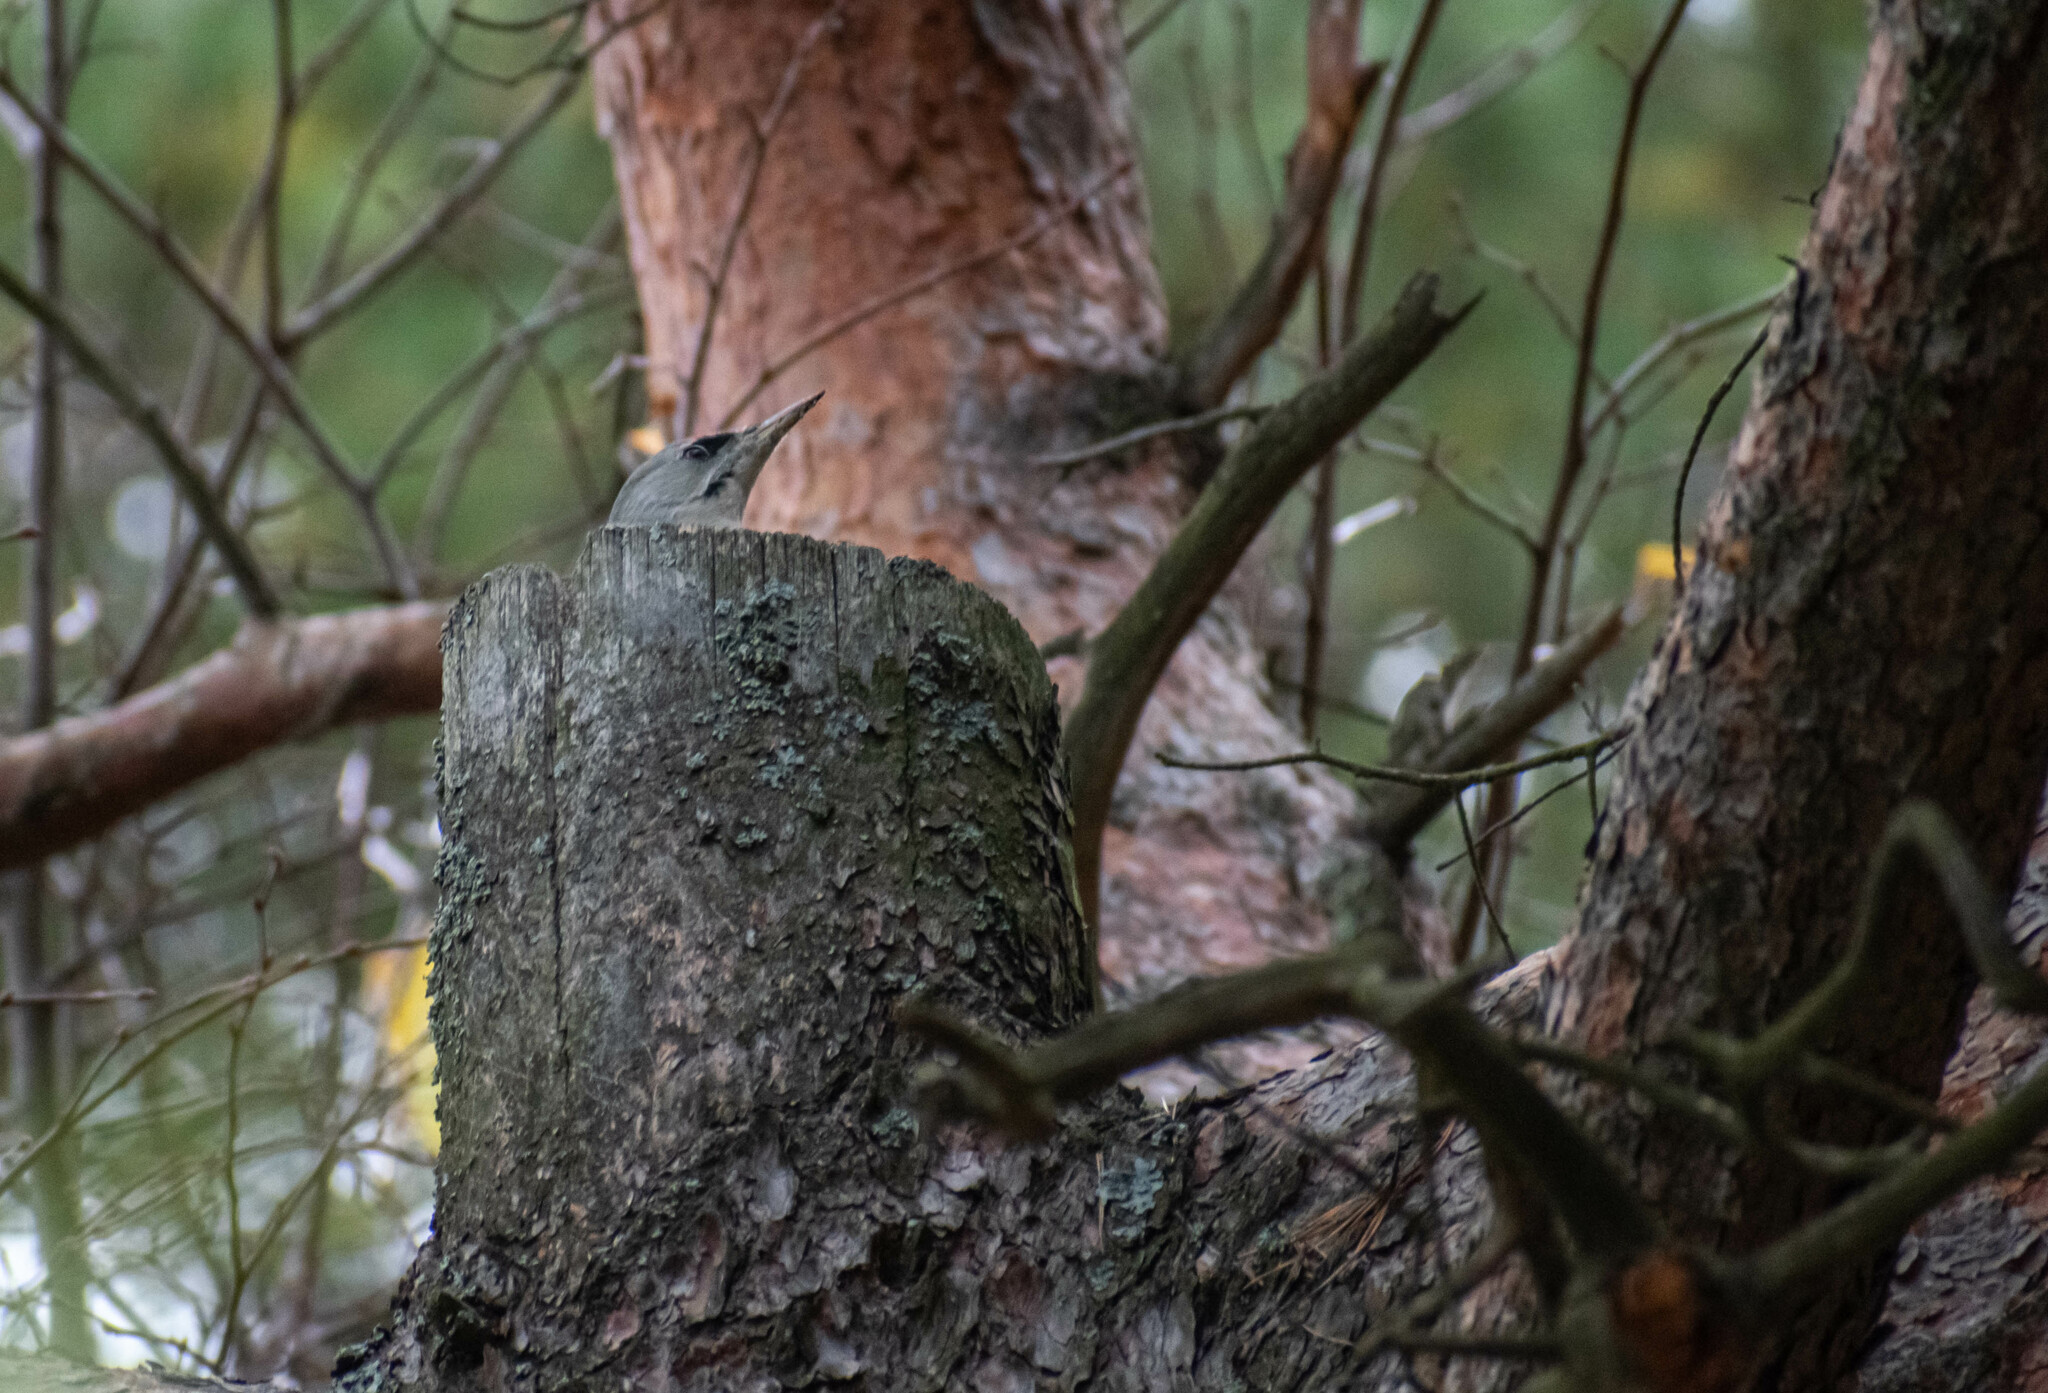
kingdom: Animalia
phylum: Chordata
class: Aves
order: Piciformes
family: Picidae
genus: Picus
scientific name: Picus canus
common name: Grey-headed woodpecker
